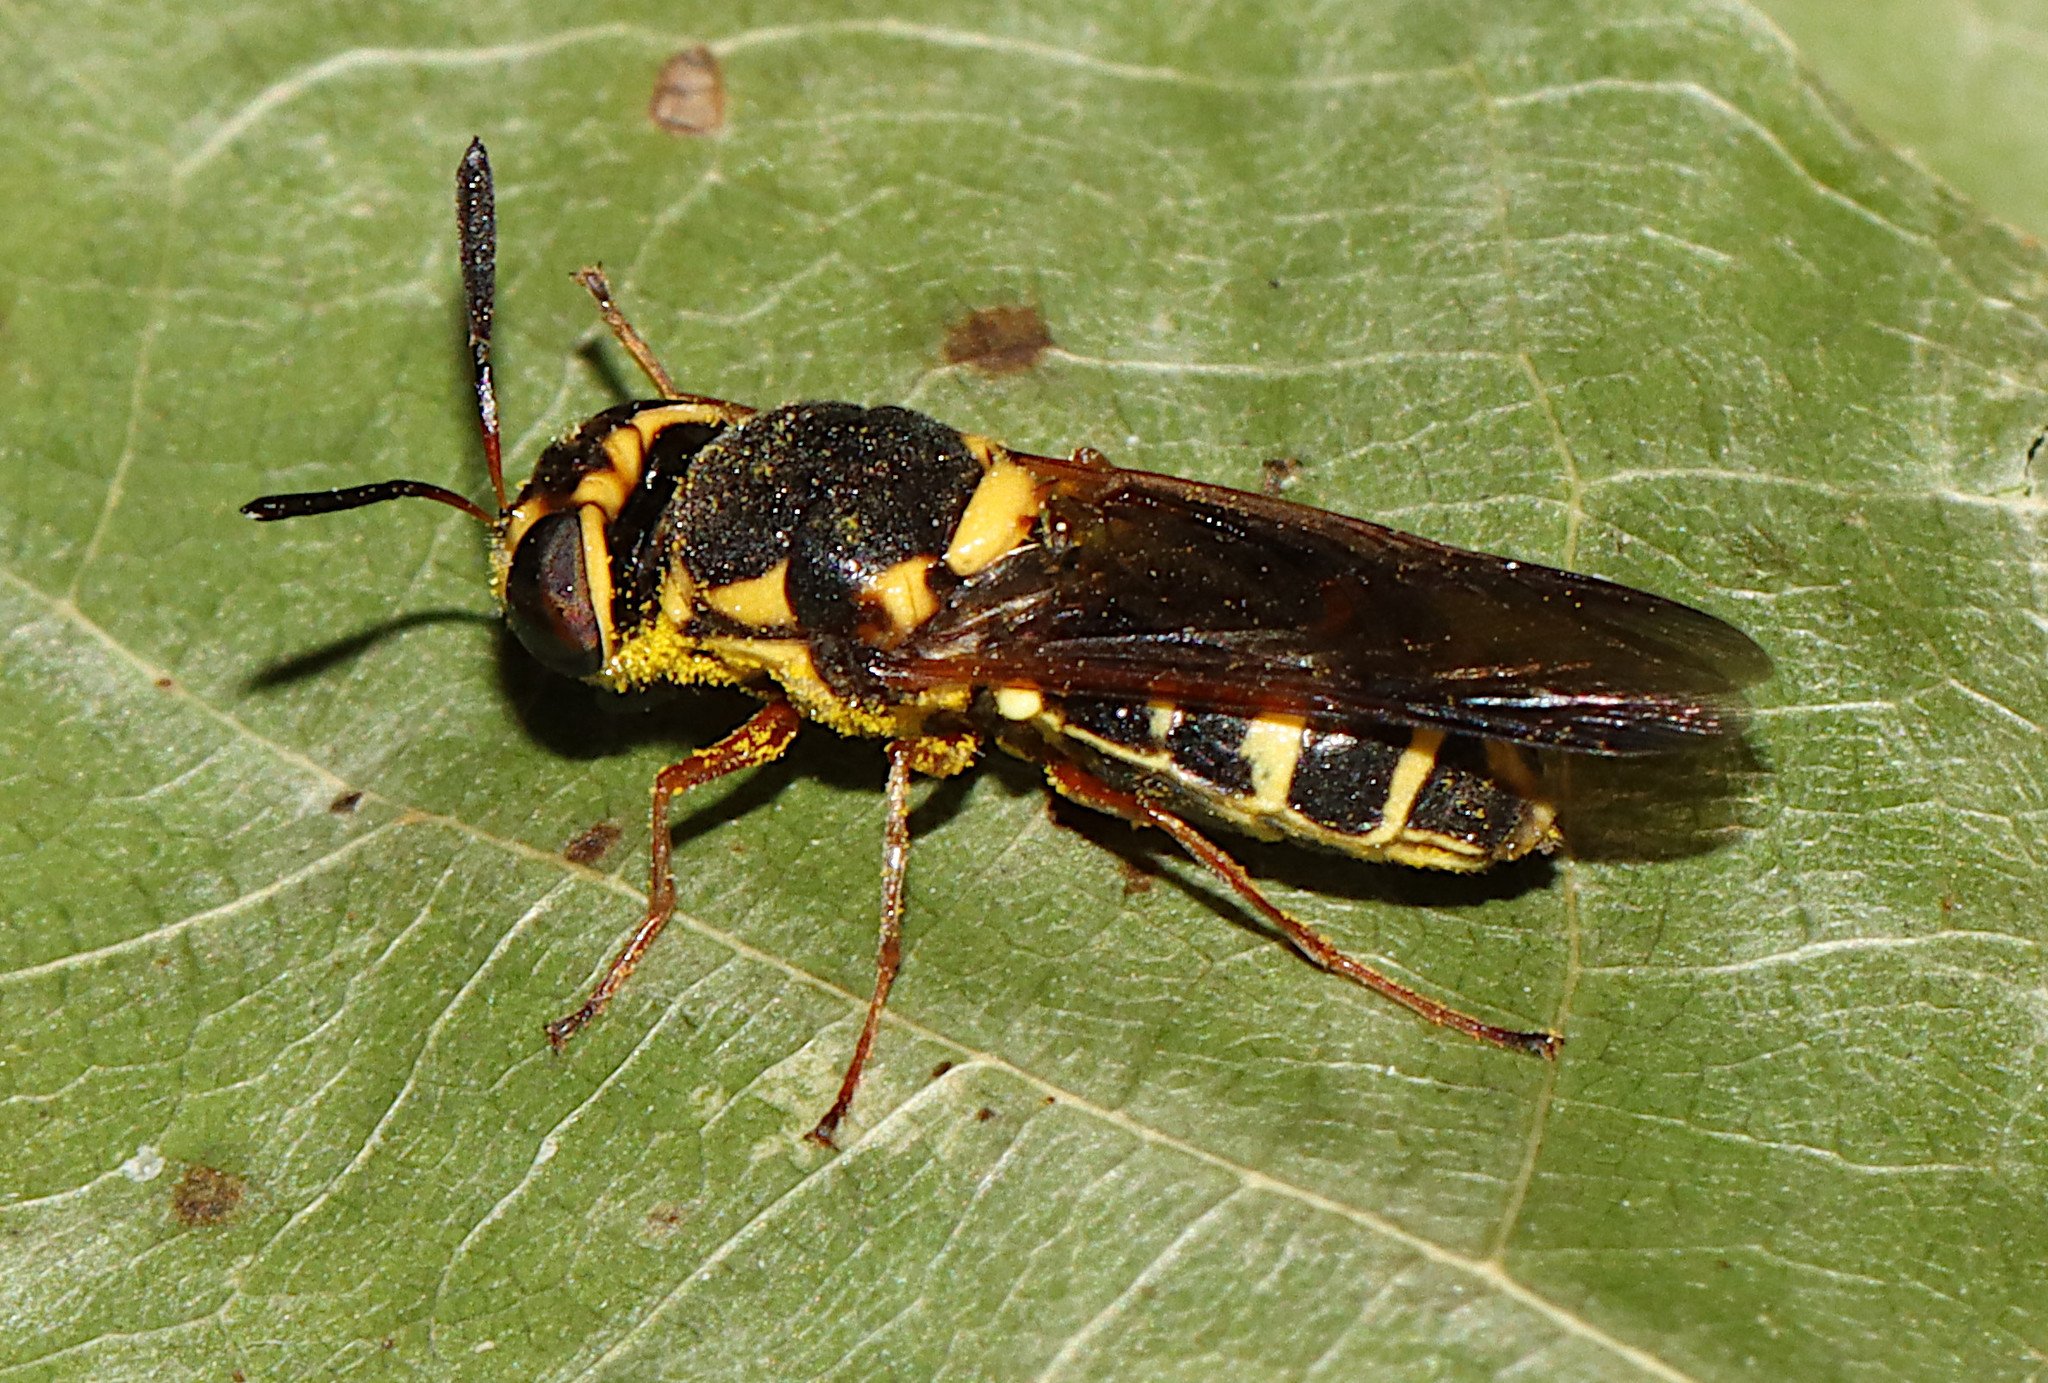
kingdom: Animalia
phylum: Arthropoda
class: Insecta
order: Diptera
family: Stratiomyidae
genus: Hoplitimyia
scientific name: Hoplitimyia constans
